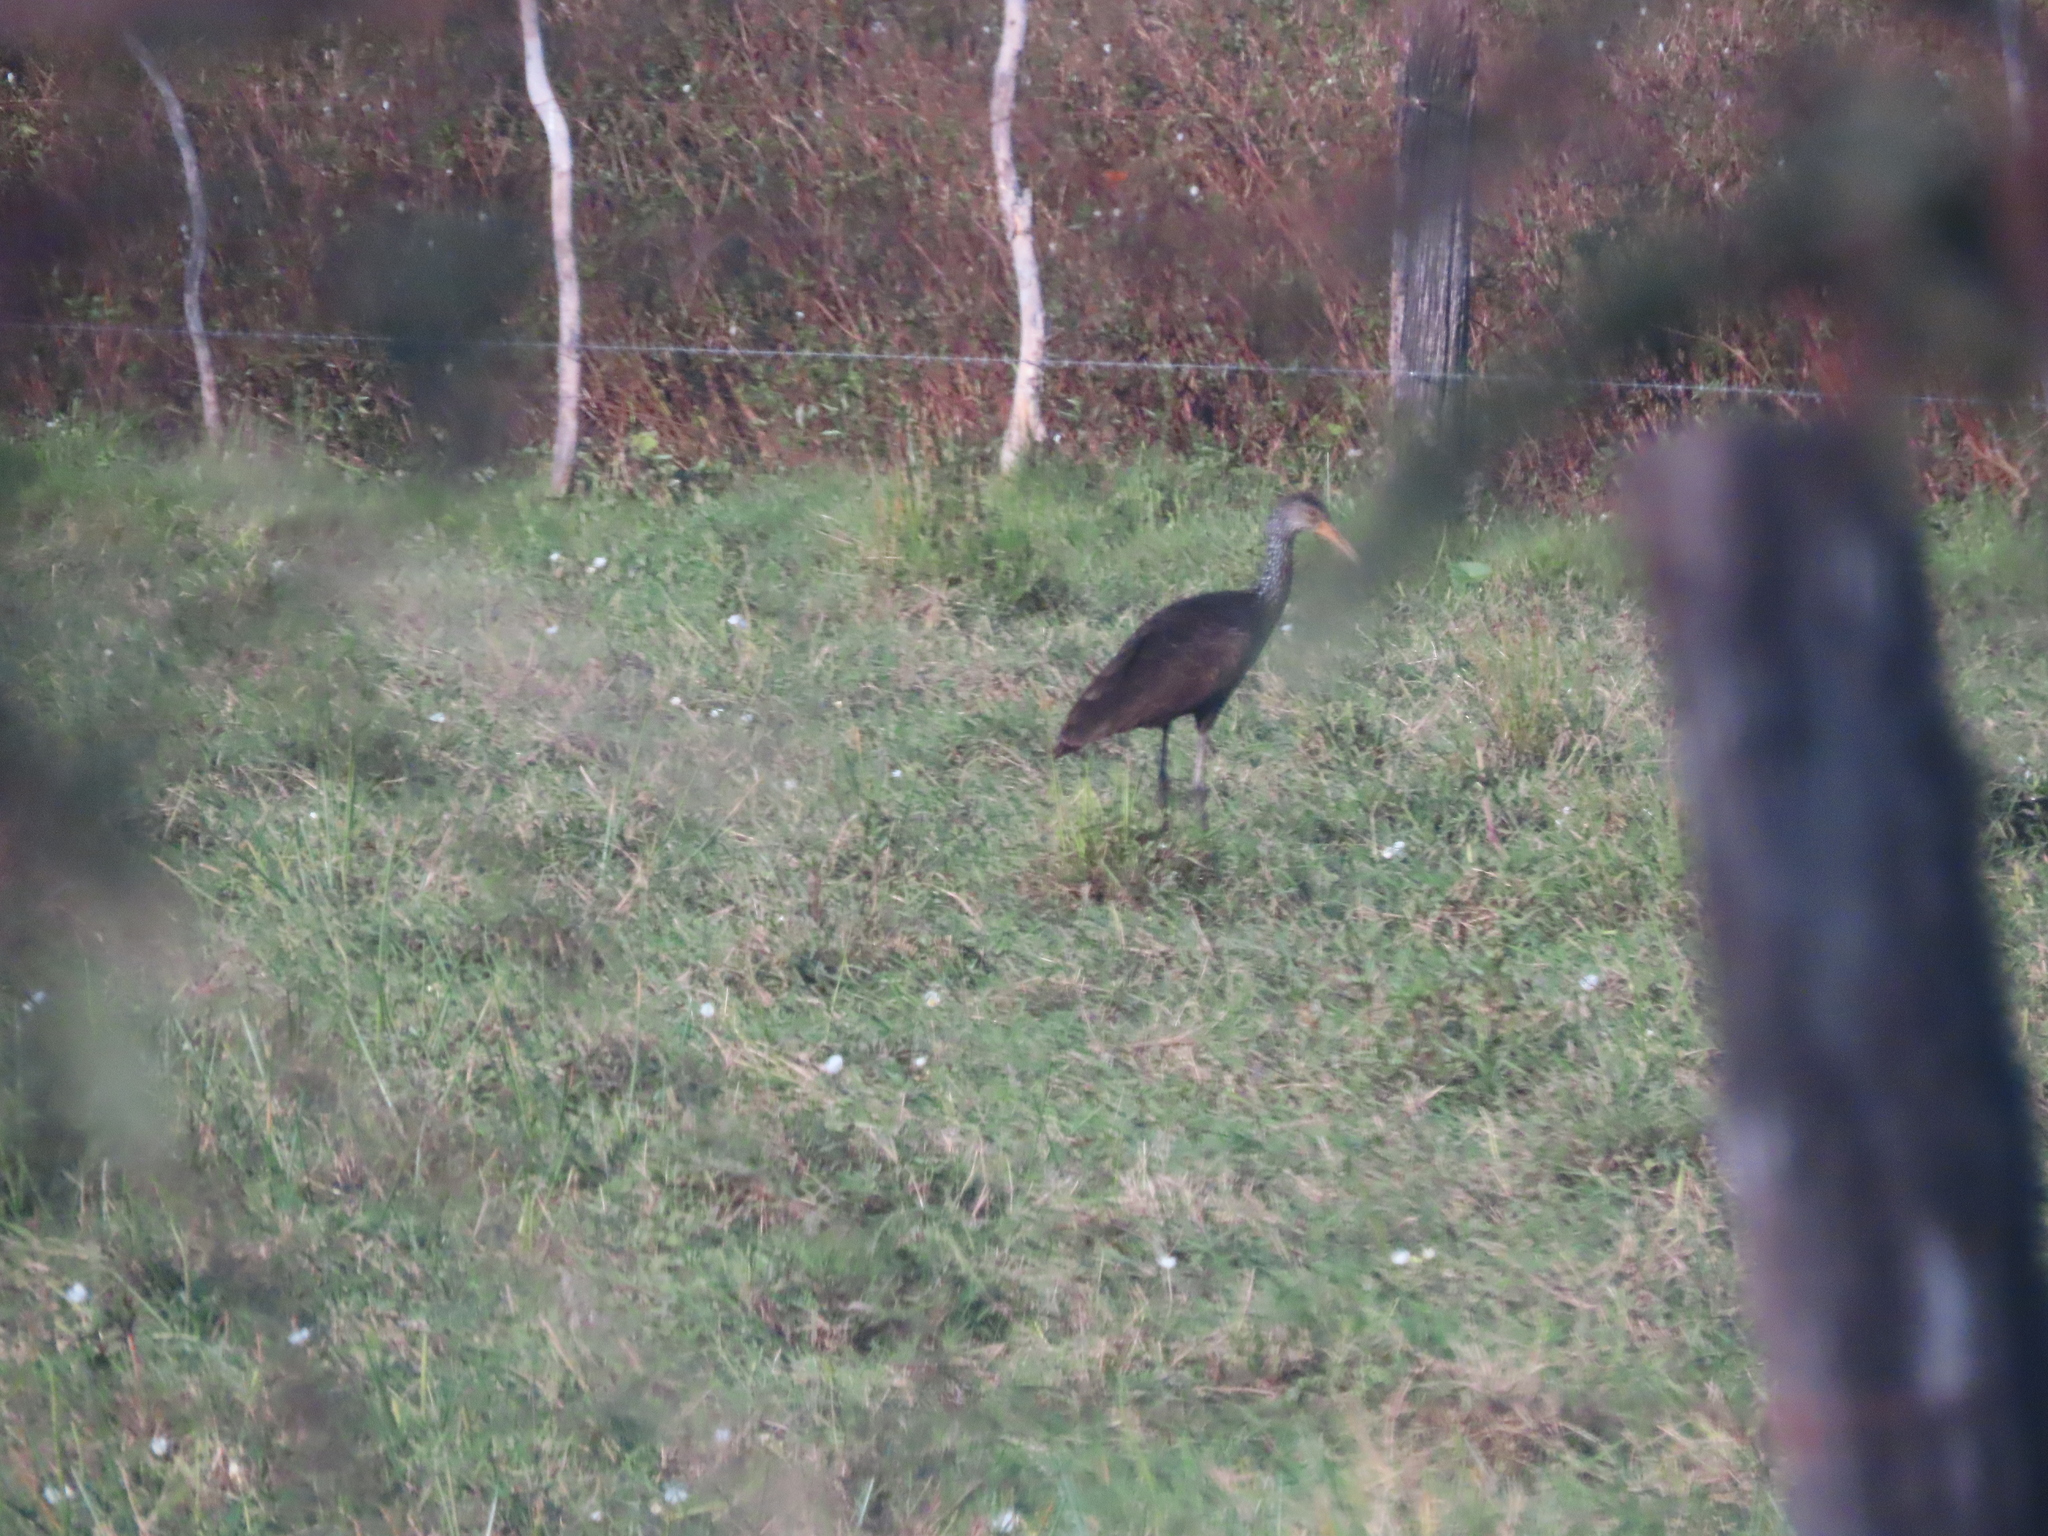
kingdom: Animalia
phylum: Chordata
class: Aves
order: Gruiformes
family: Aramidae
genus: Aramus
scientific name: Aramus guarauna
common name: Limpkin
